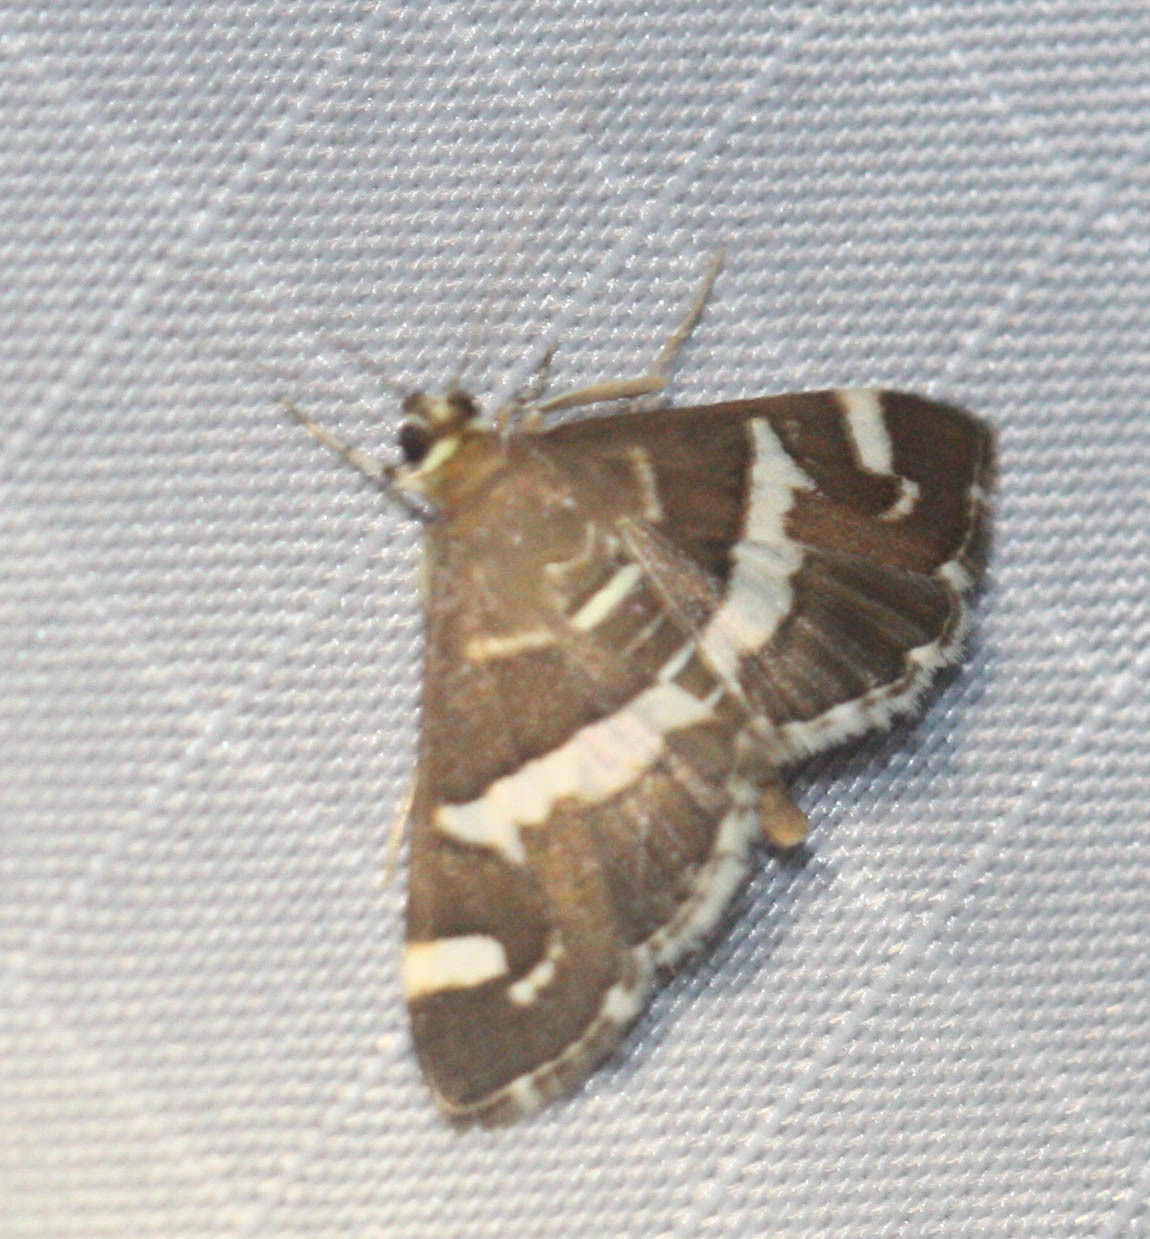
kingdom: Animalia
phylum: Arthropoda
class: Insecta
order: Lepidoptera
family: Crambidae
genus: Spoladea
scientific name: Spoladea recurvalis
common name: Beet webworm moth
